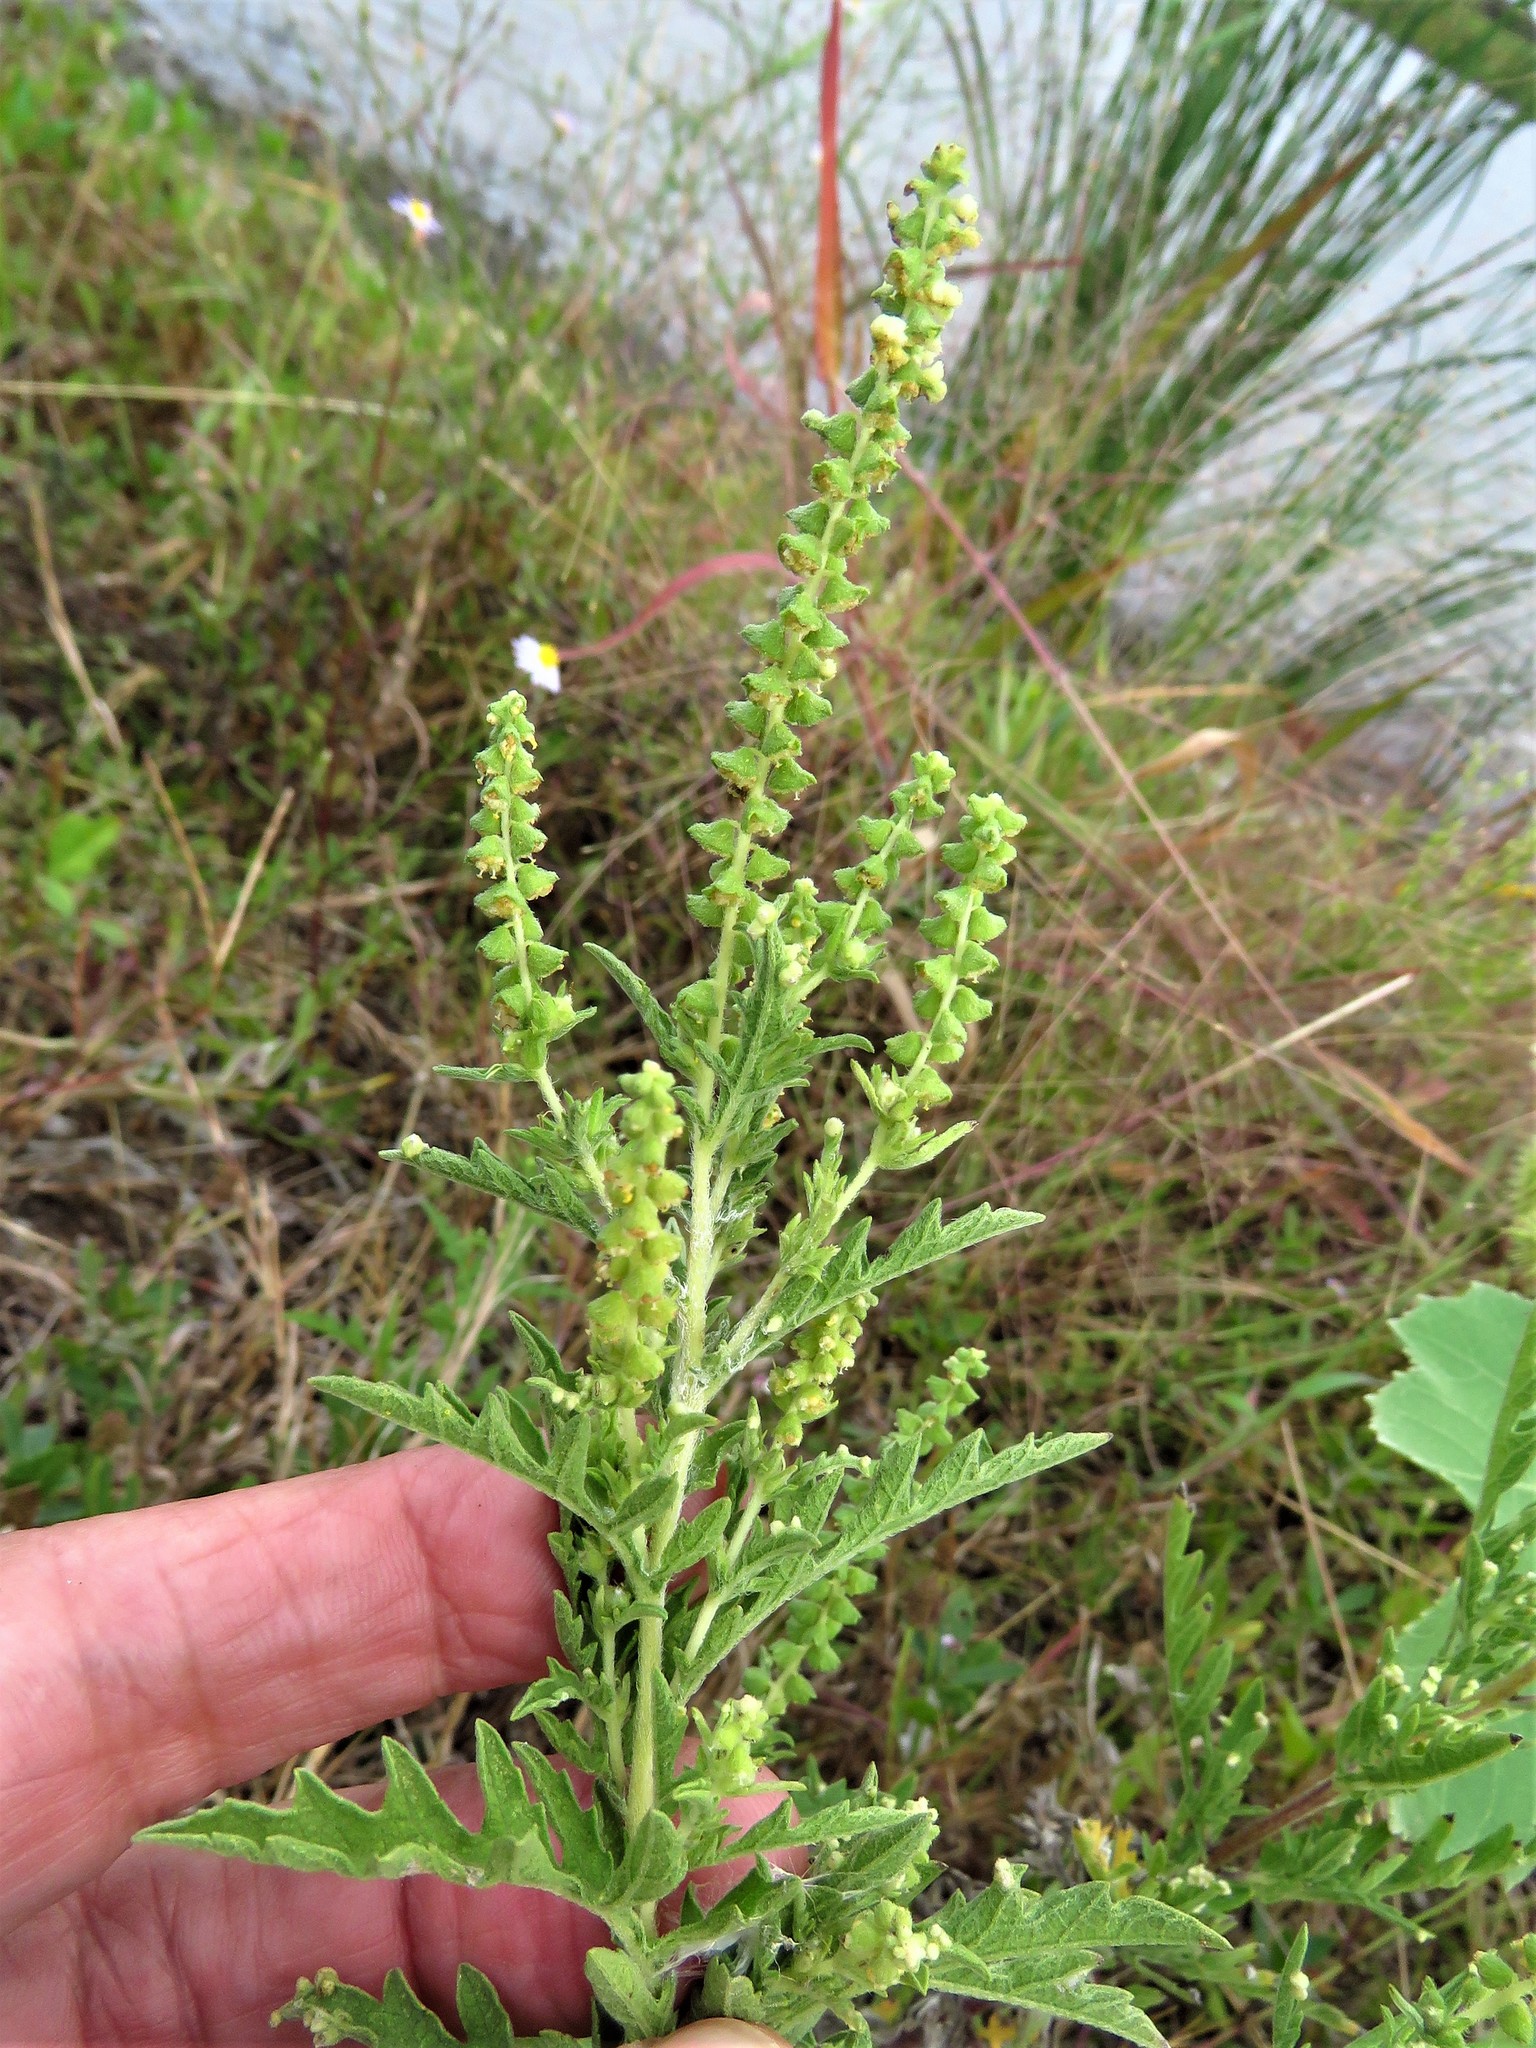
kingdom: Plantae
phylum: Tracheophyta
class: Magnoliopsida
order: Asterales
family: Asteraceae
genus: Ambrosia
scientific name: Ambrosia artemisiifolia
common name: Annual ragweed
